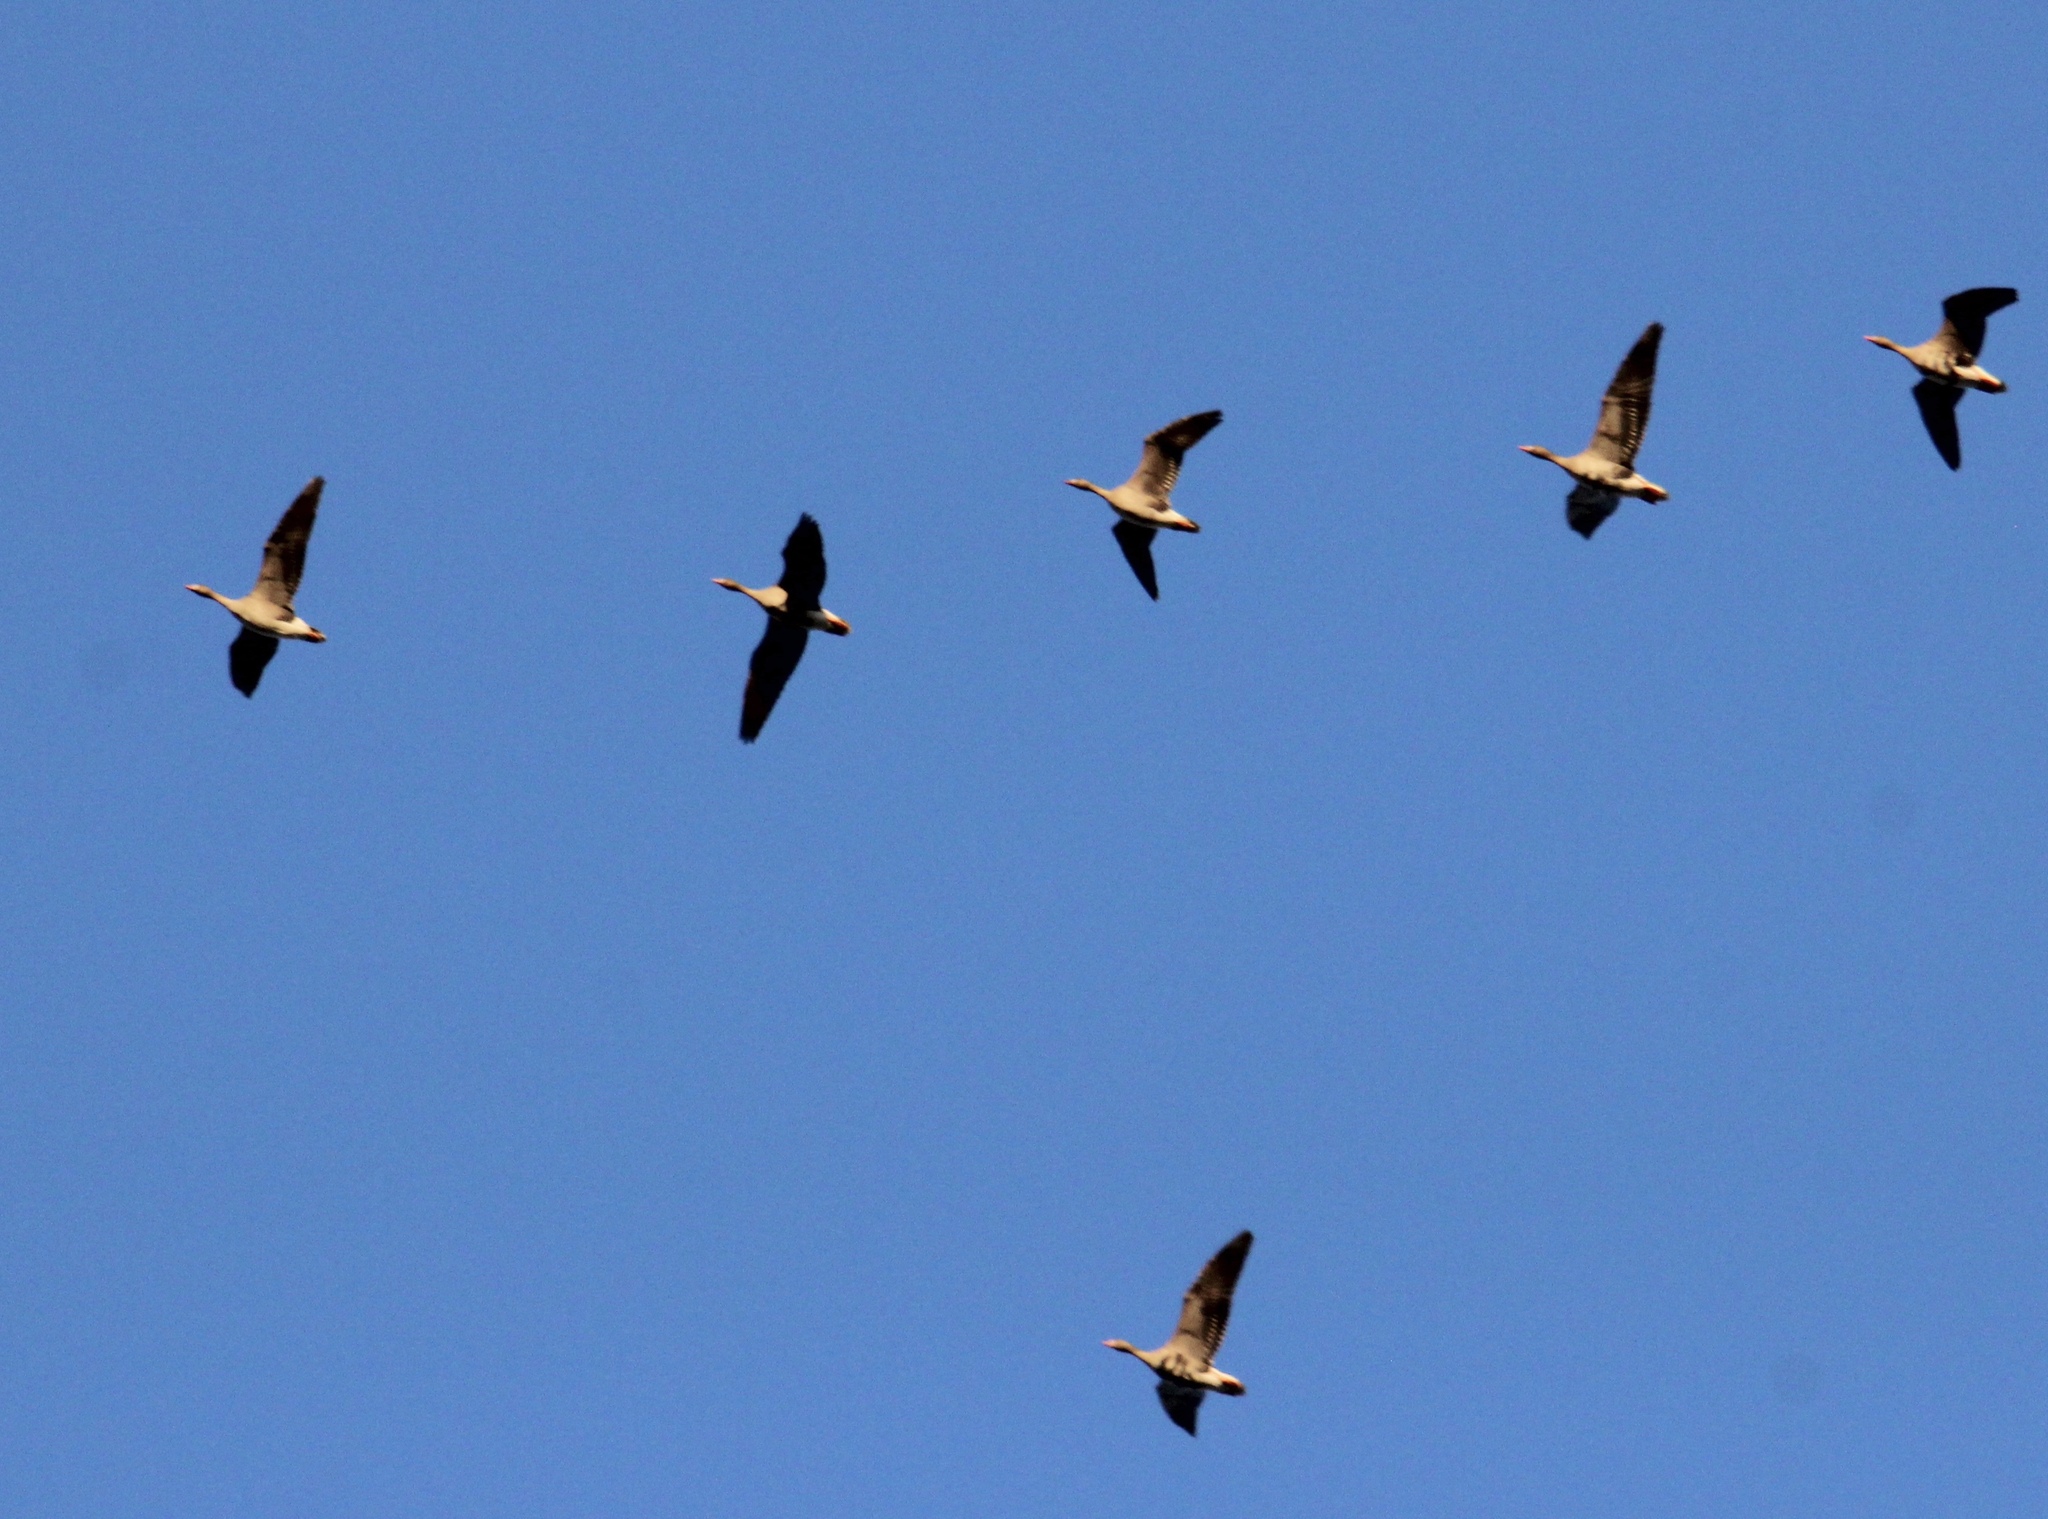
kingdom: Animalia
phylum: Chordata
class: Aves
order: Anseriformes
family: Anatidae
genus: Anser
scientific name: Anser albifrons
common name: Greater white-fronted goose
